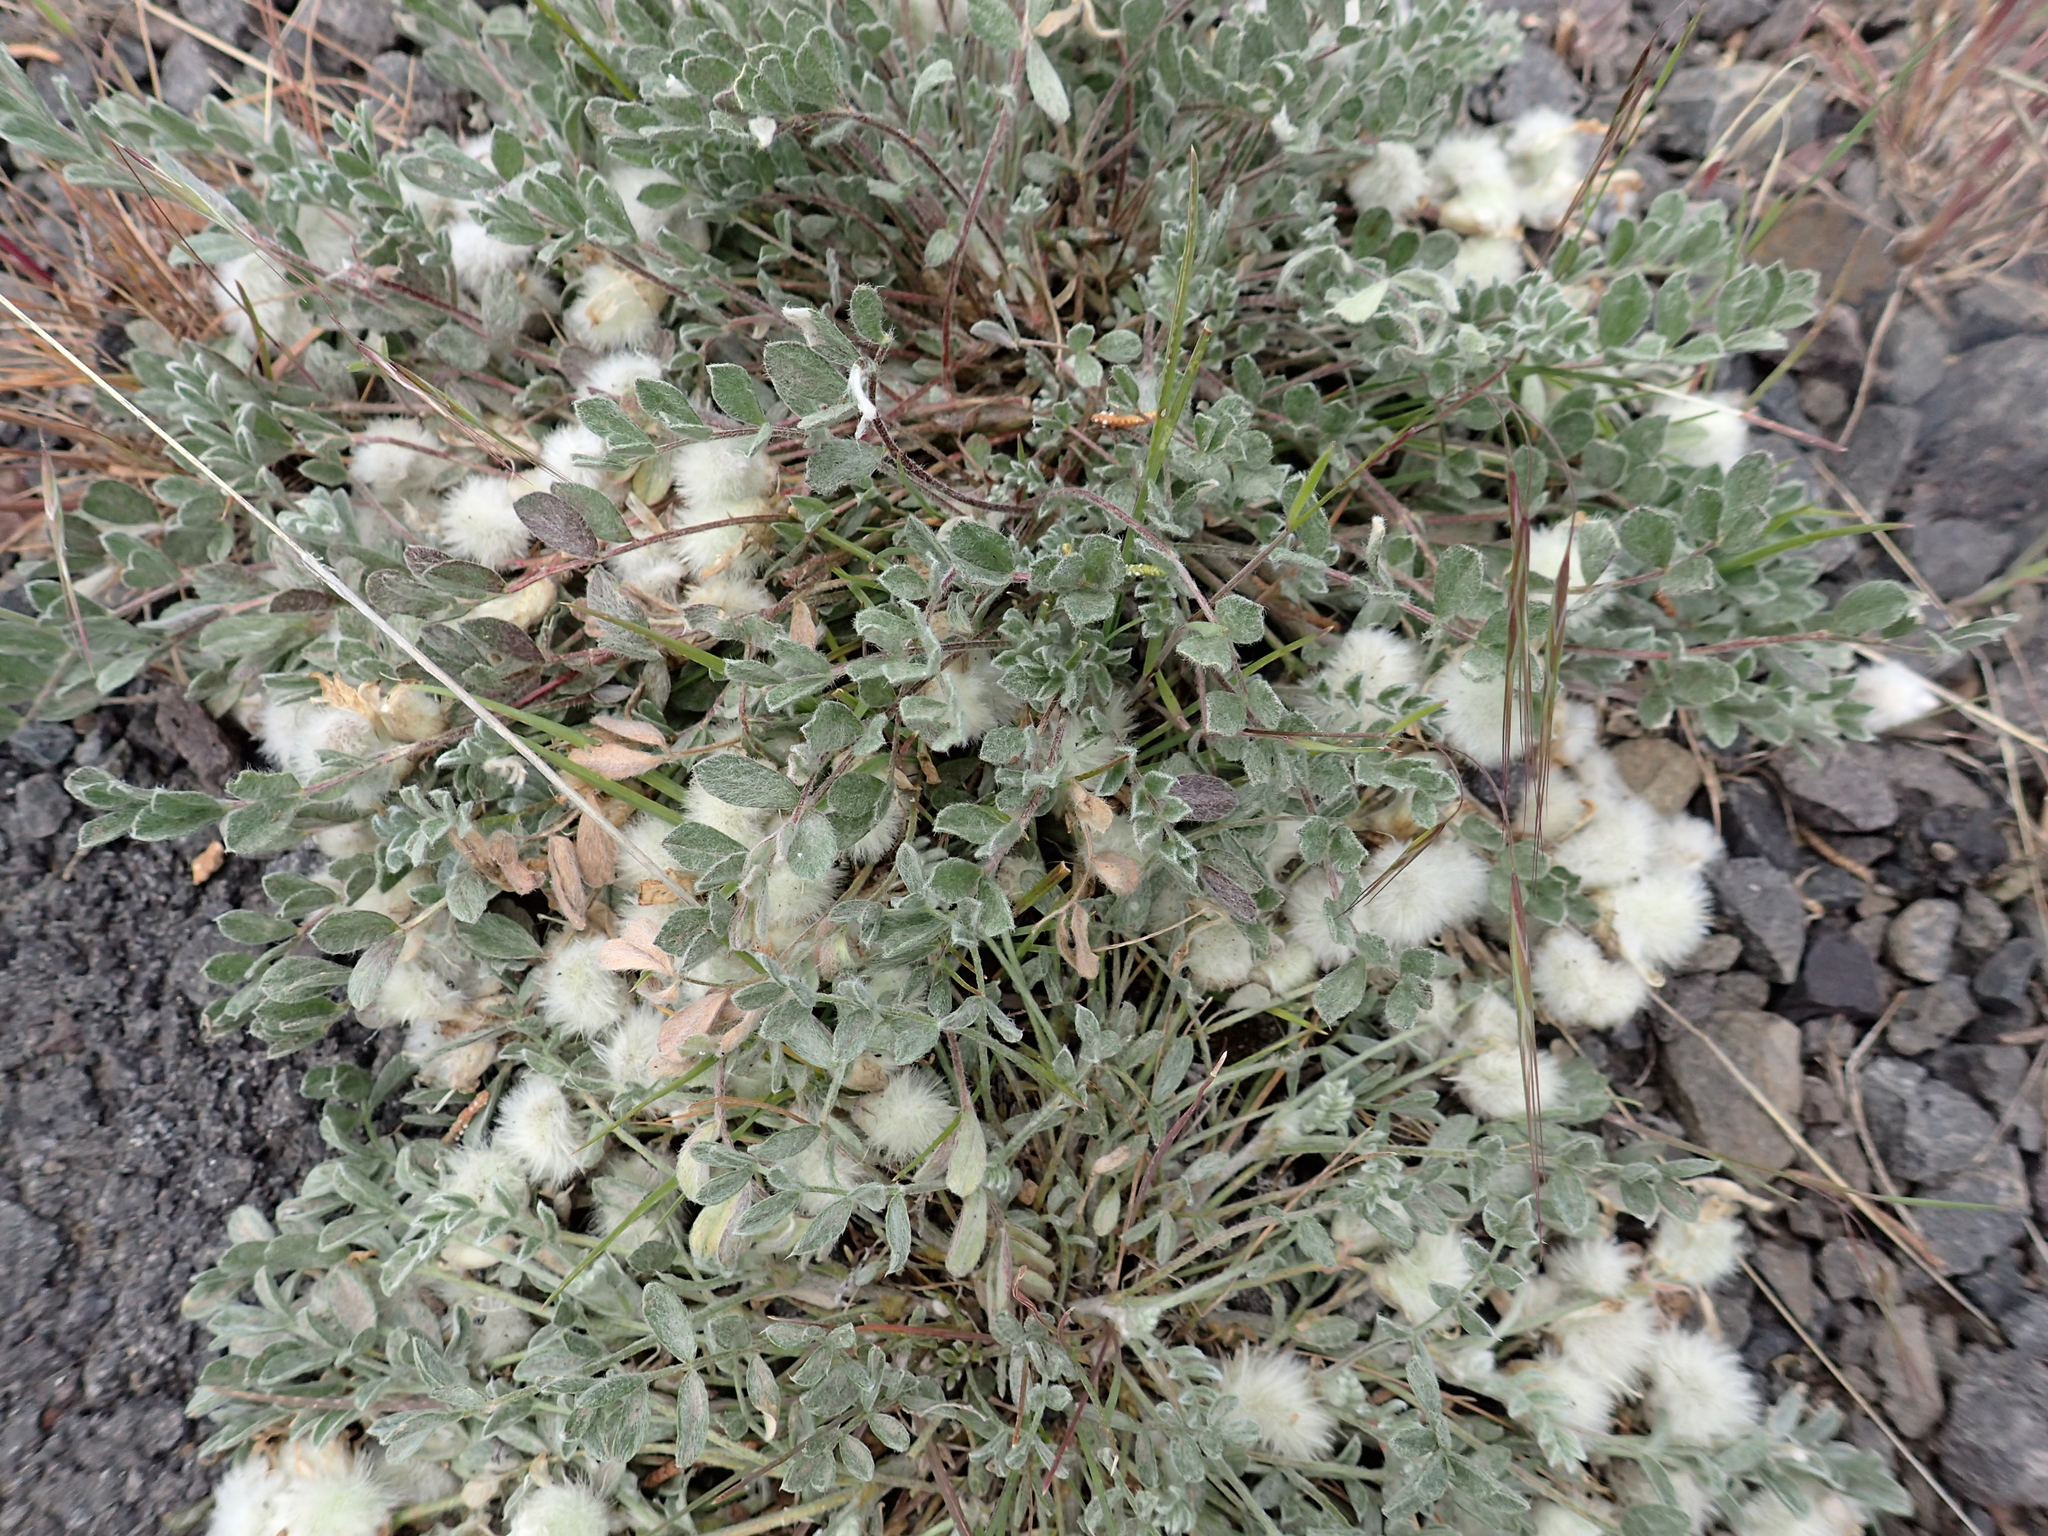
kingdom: Plantae
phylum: Tracheophyta
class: Magnoliopsida
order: Fabales
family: Fabaceae
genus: Astragalus
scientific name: Astragalus purshii
